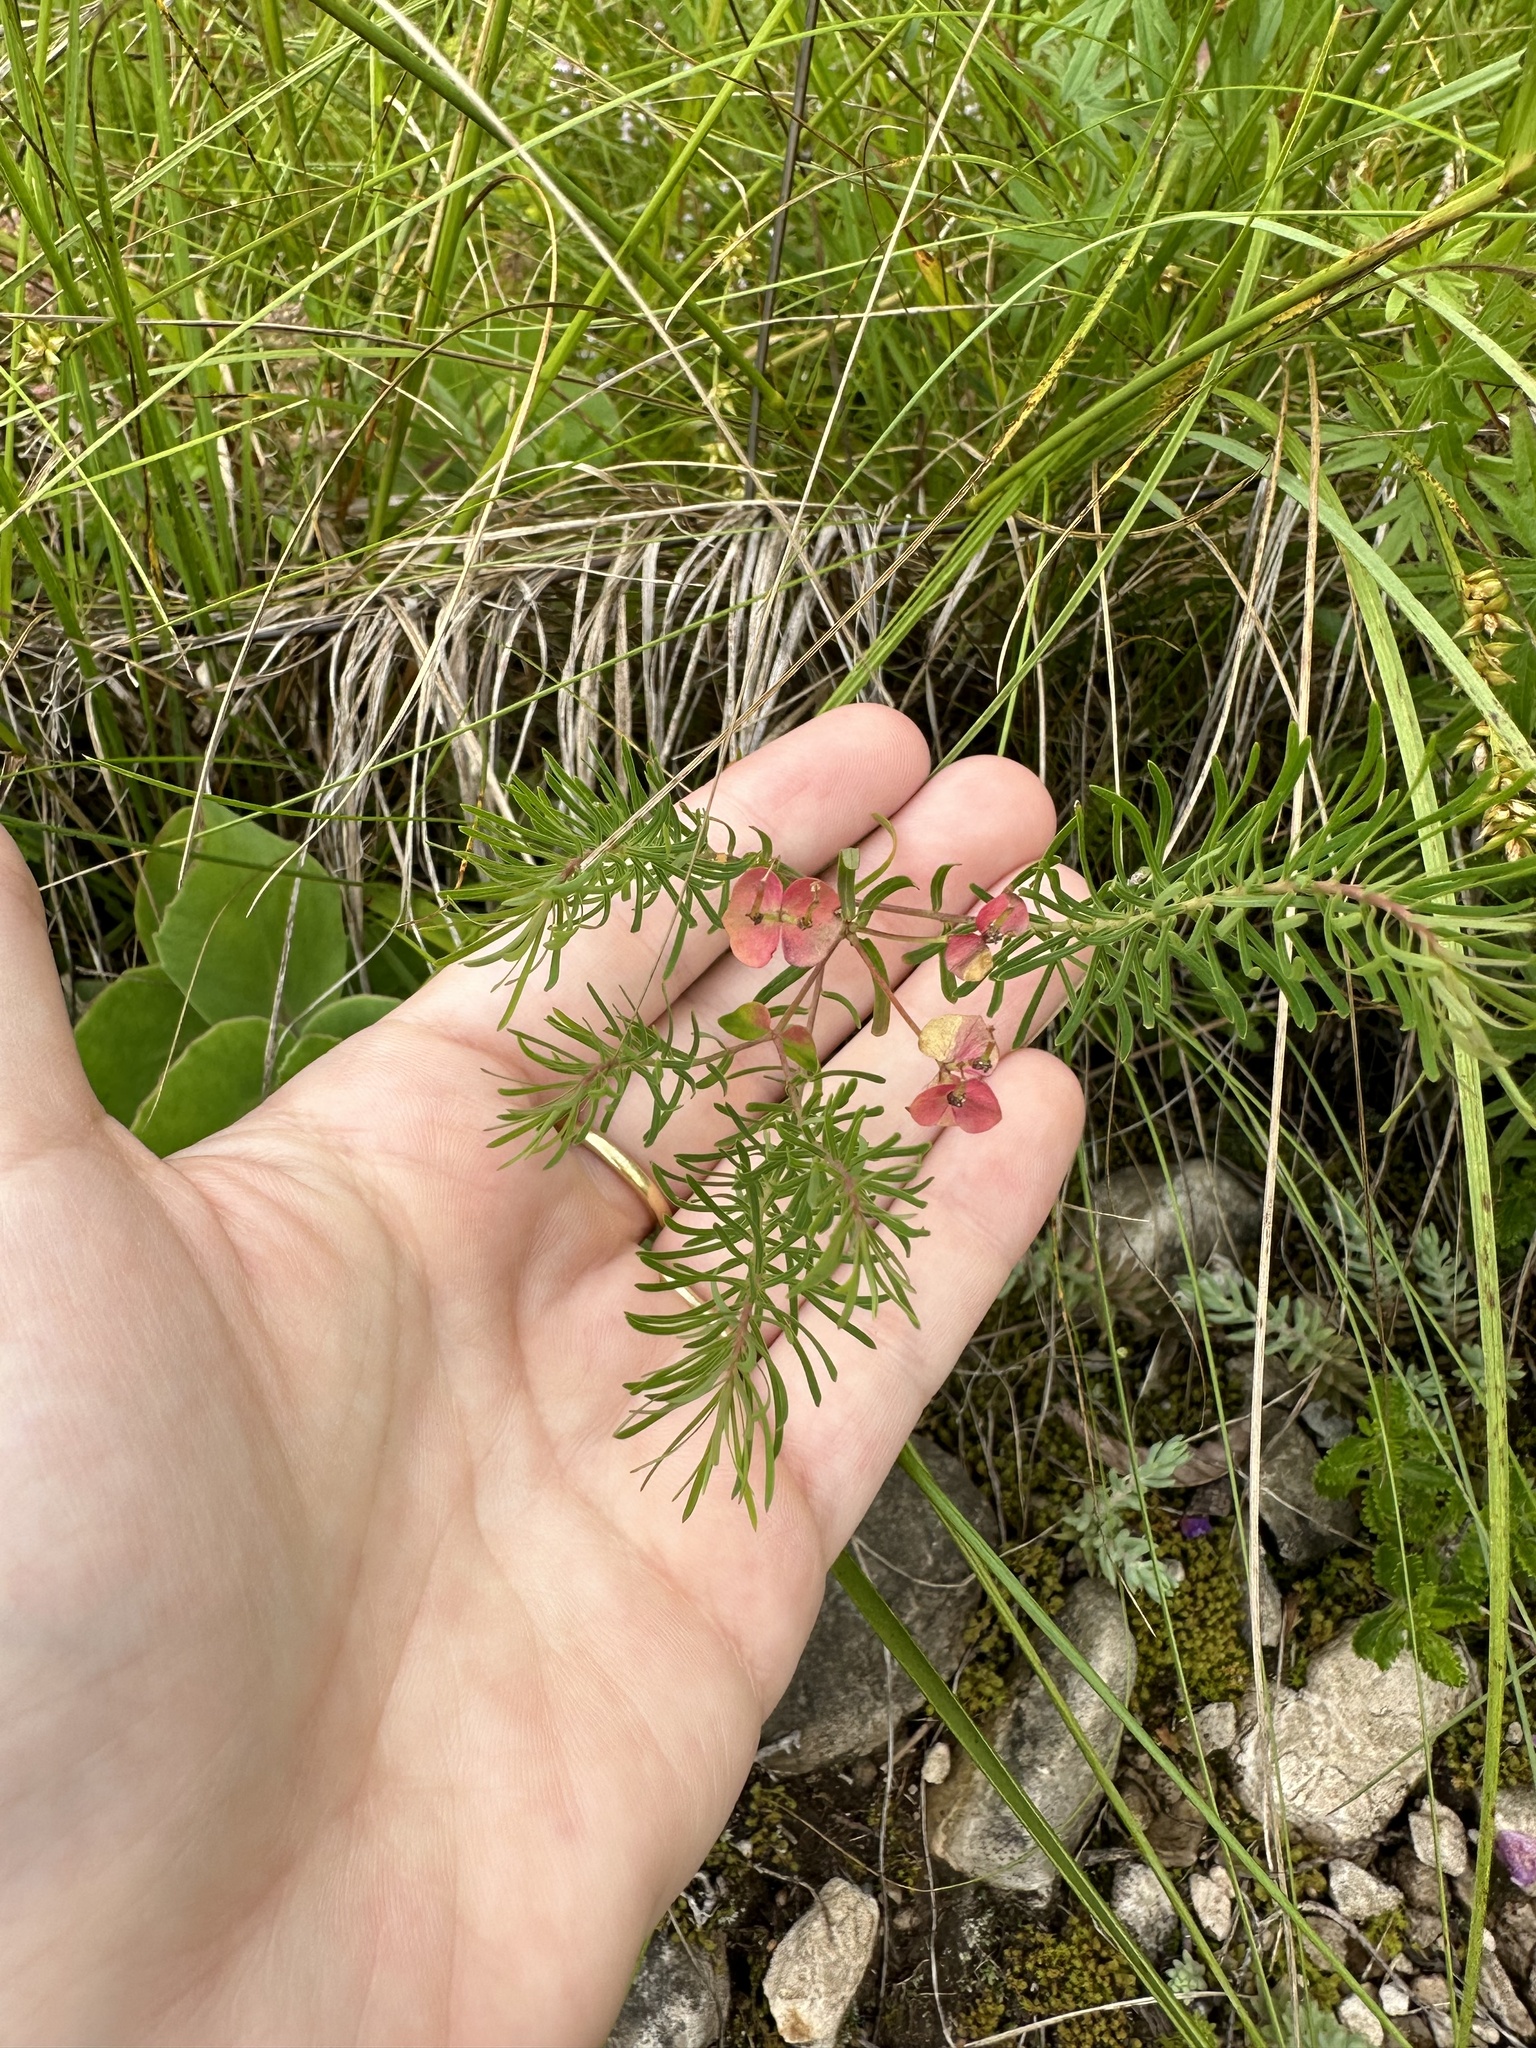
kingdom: Plantae
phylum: Tracheophyta
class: Magnoliopsida
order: Malpighiales
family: Euphorbiaceae
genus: Euphorbia
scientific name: Euphorbia cyparissias
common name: Cypress spurge
